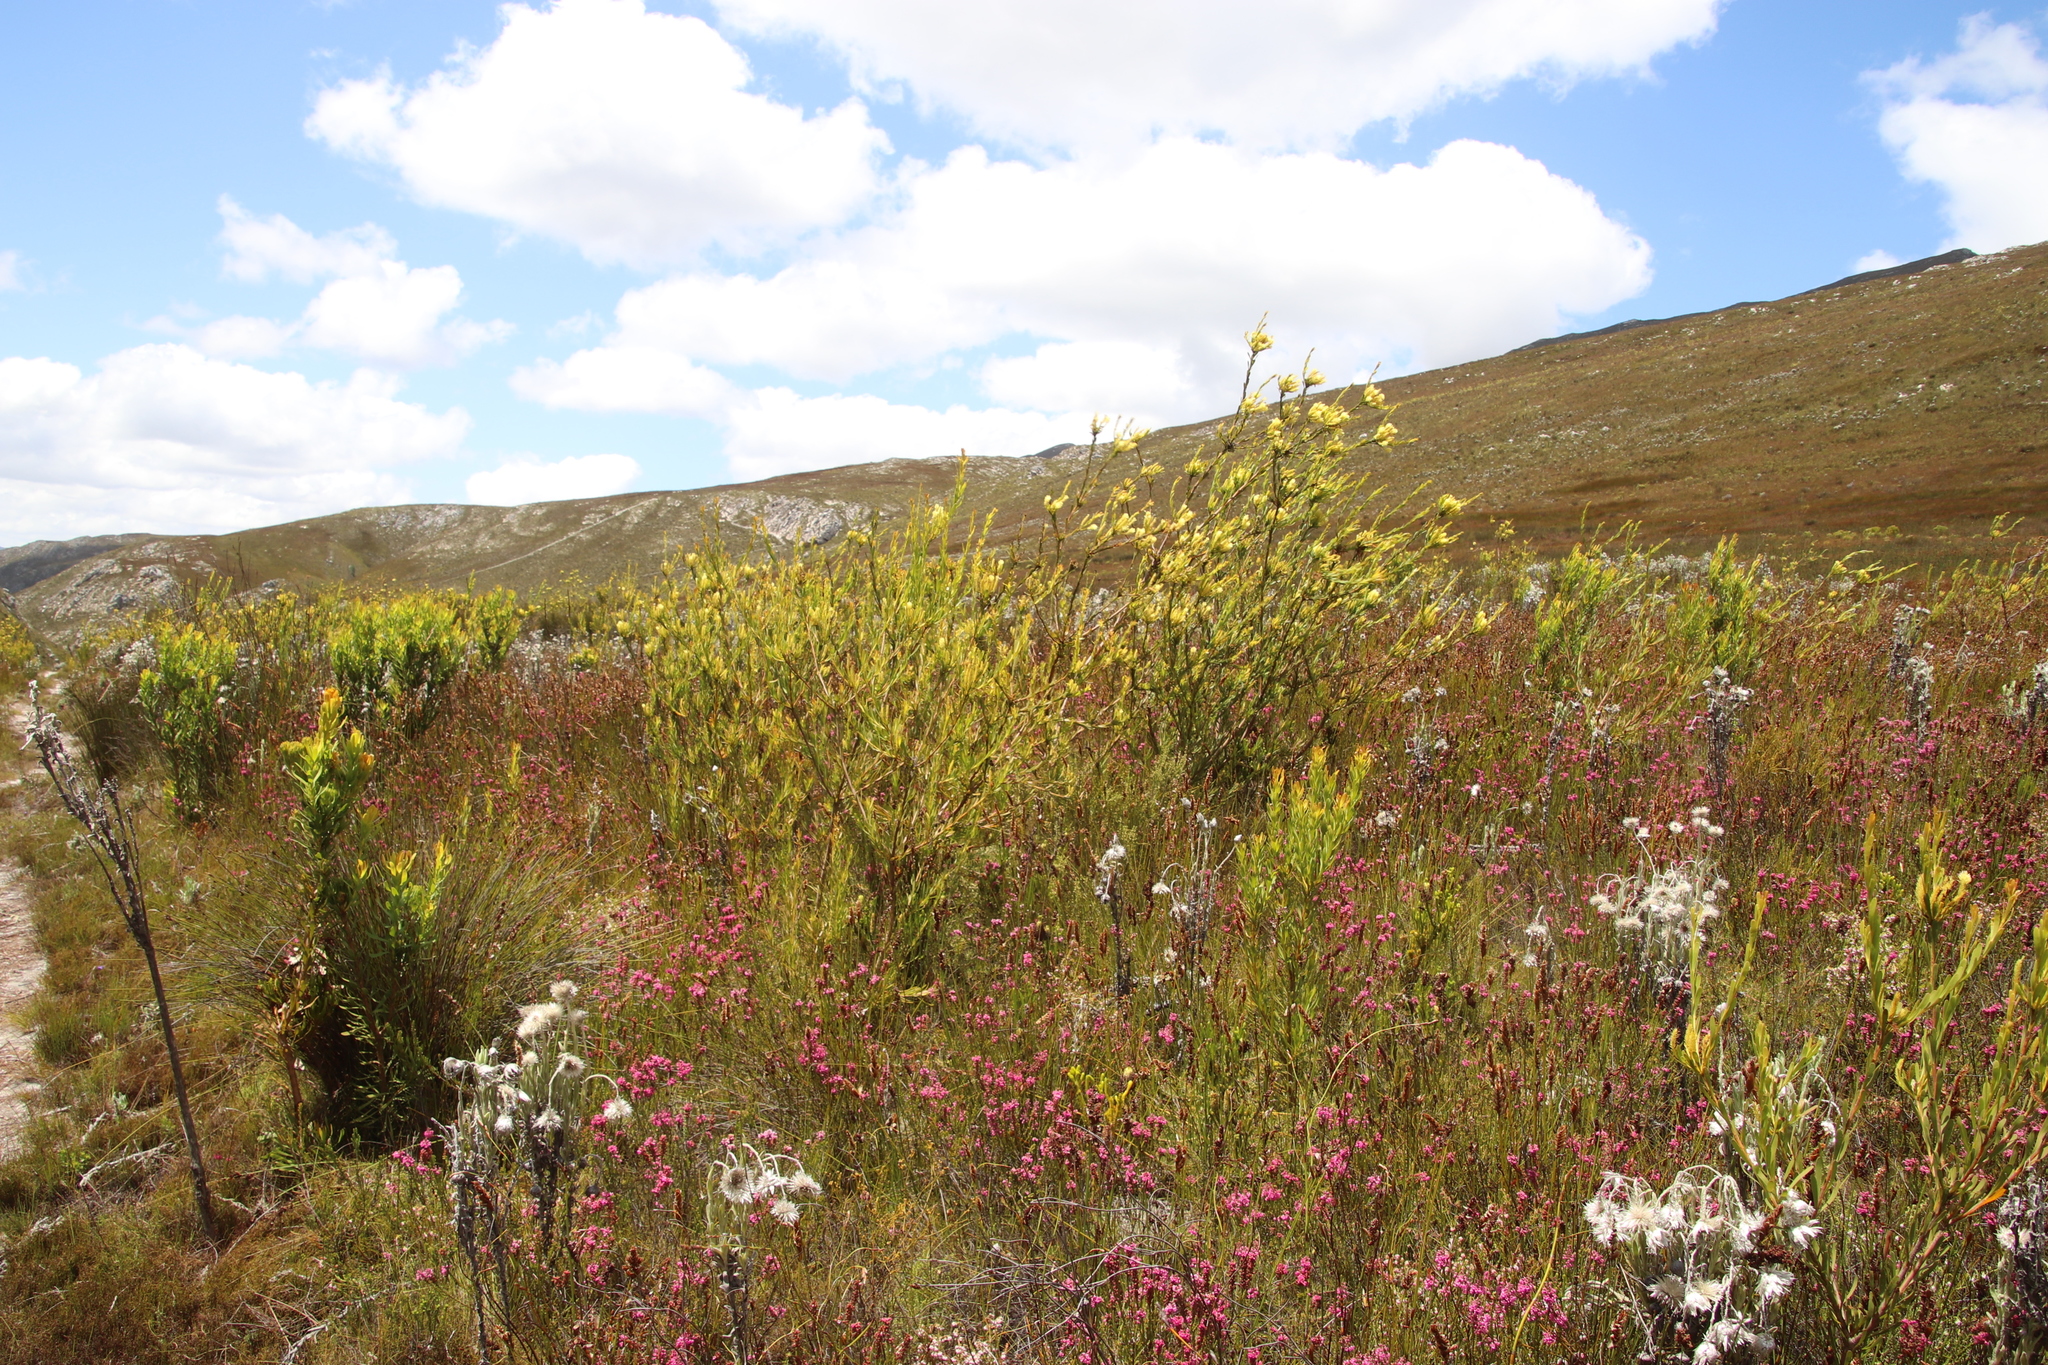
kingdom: Plantae
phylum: Tracheophyta
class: Magnoliopsida
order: Proteales
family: Proteaceae
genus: Aulax
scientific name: Aulax umbellata
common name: Broad-leaf featherbush
